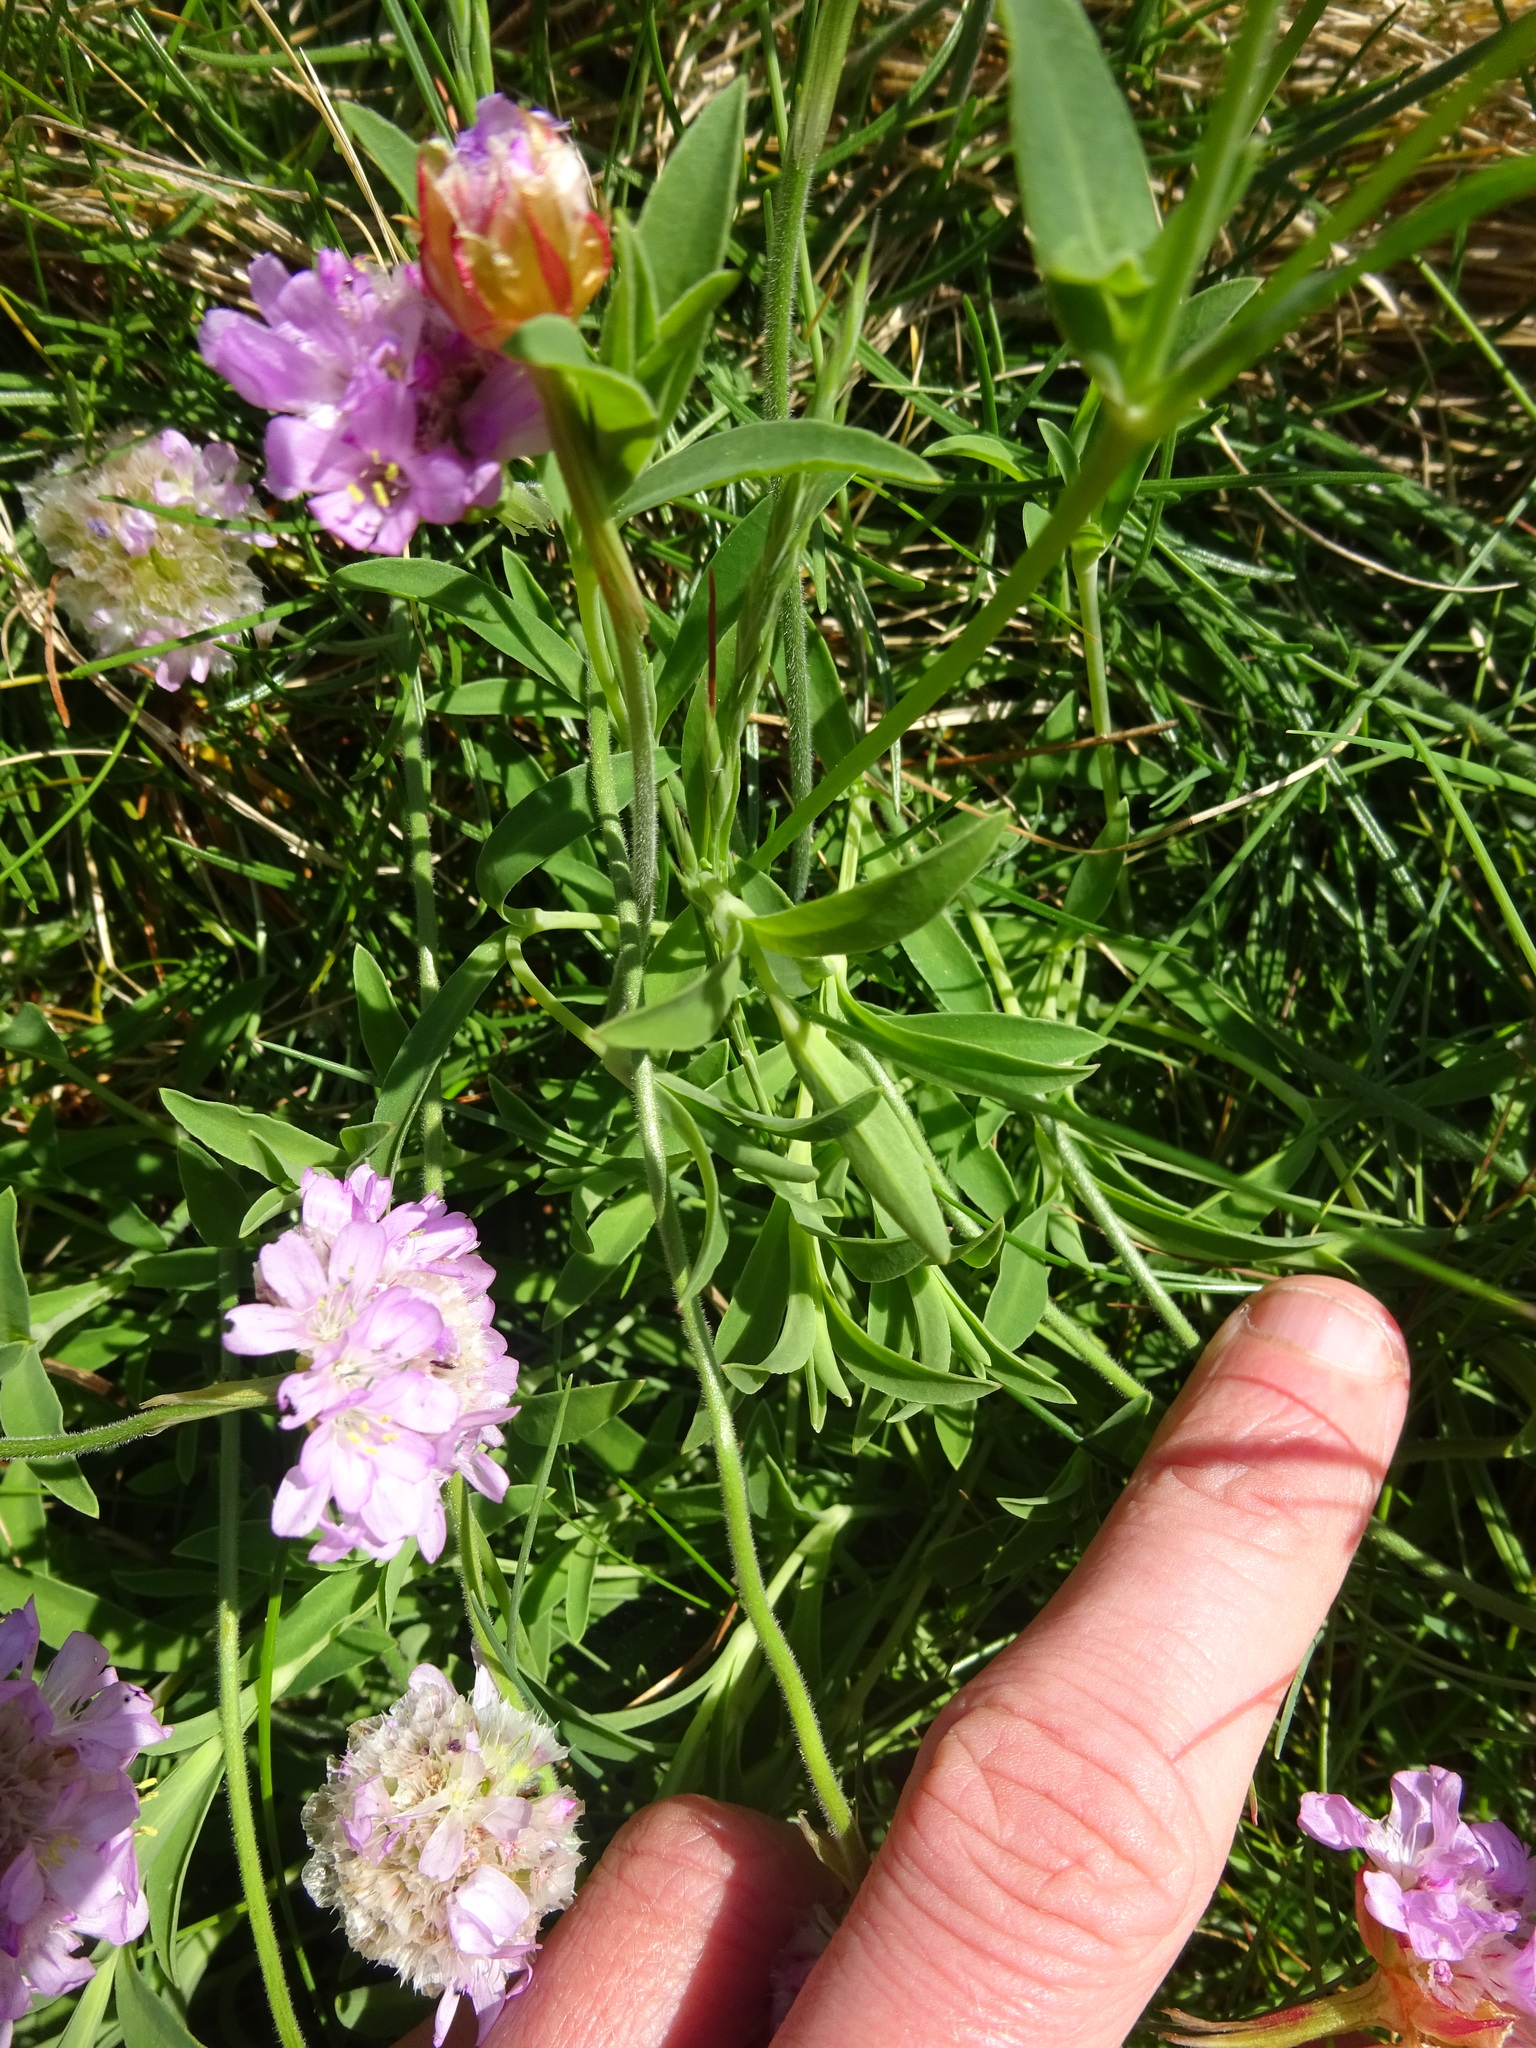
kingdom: Plantae
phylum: Tracheophyta
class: Magnoliopsida
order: Caryophyllales
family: Caryophyllaceae
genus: Silene
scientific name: Silene uniflora
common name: Sea campion
